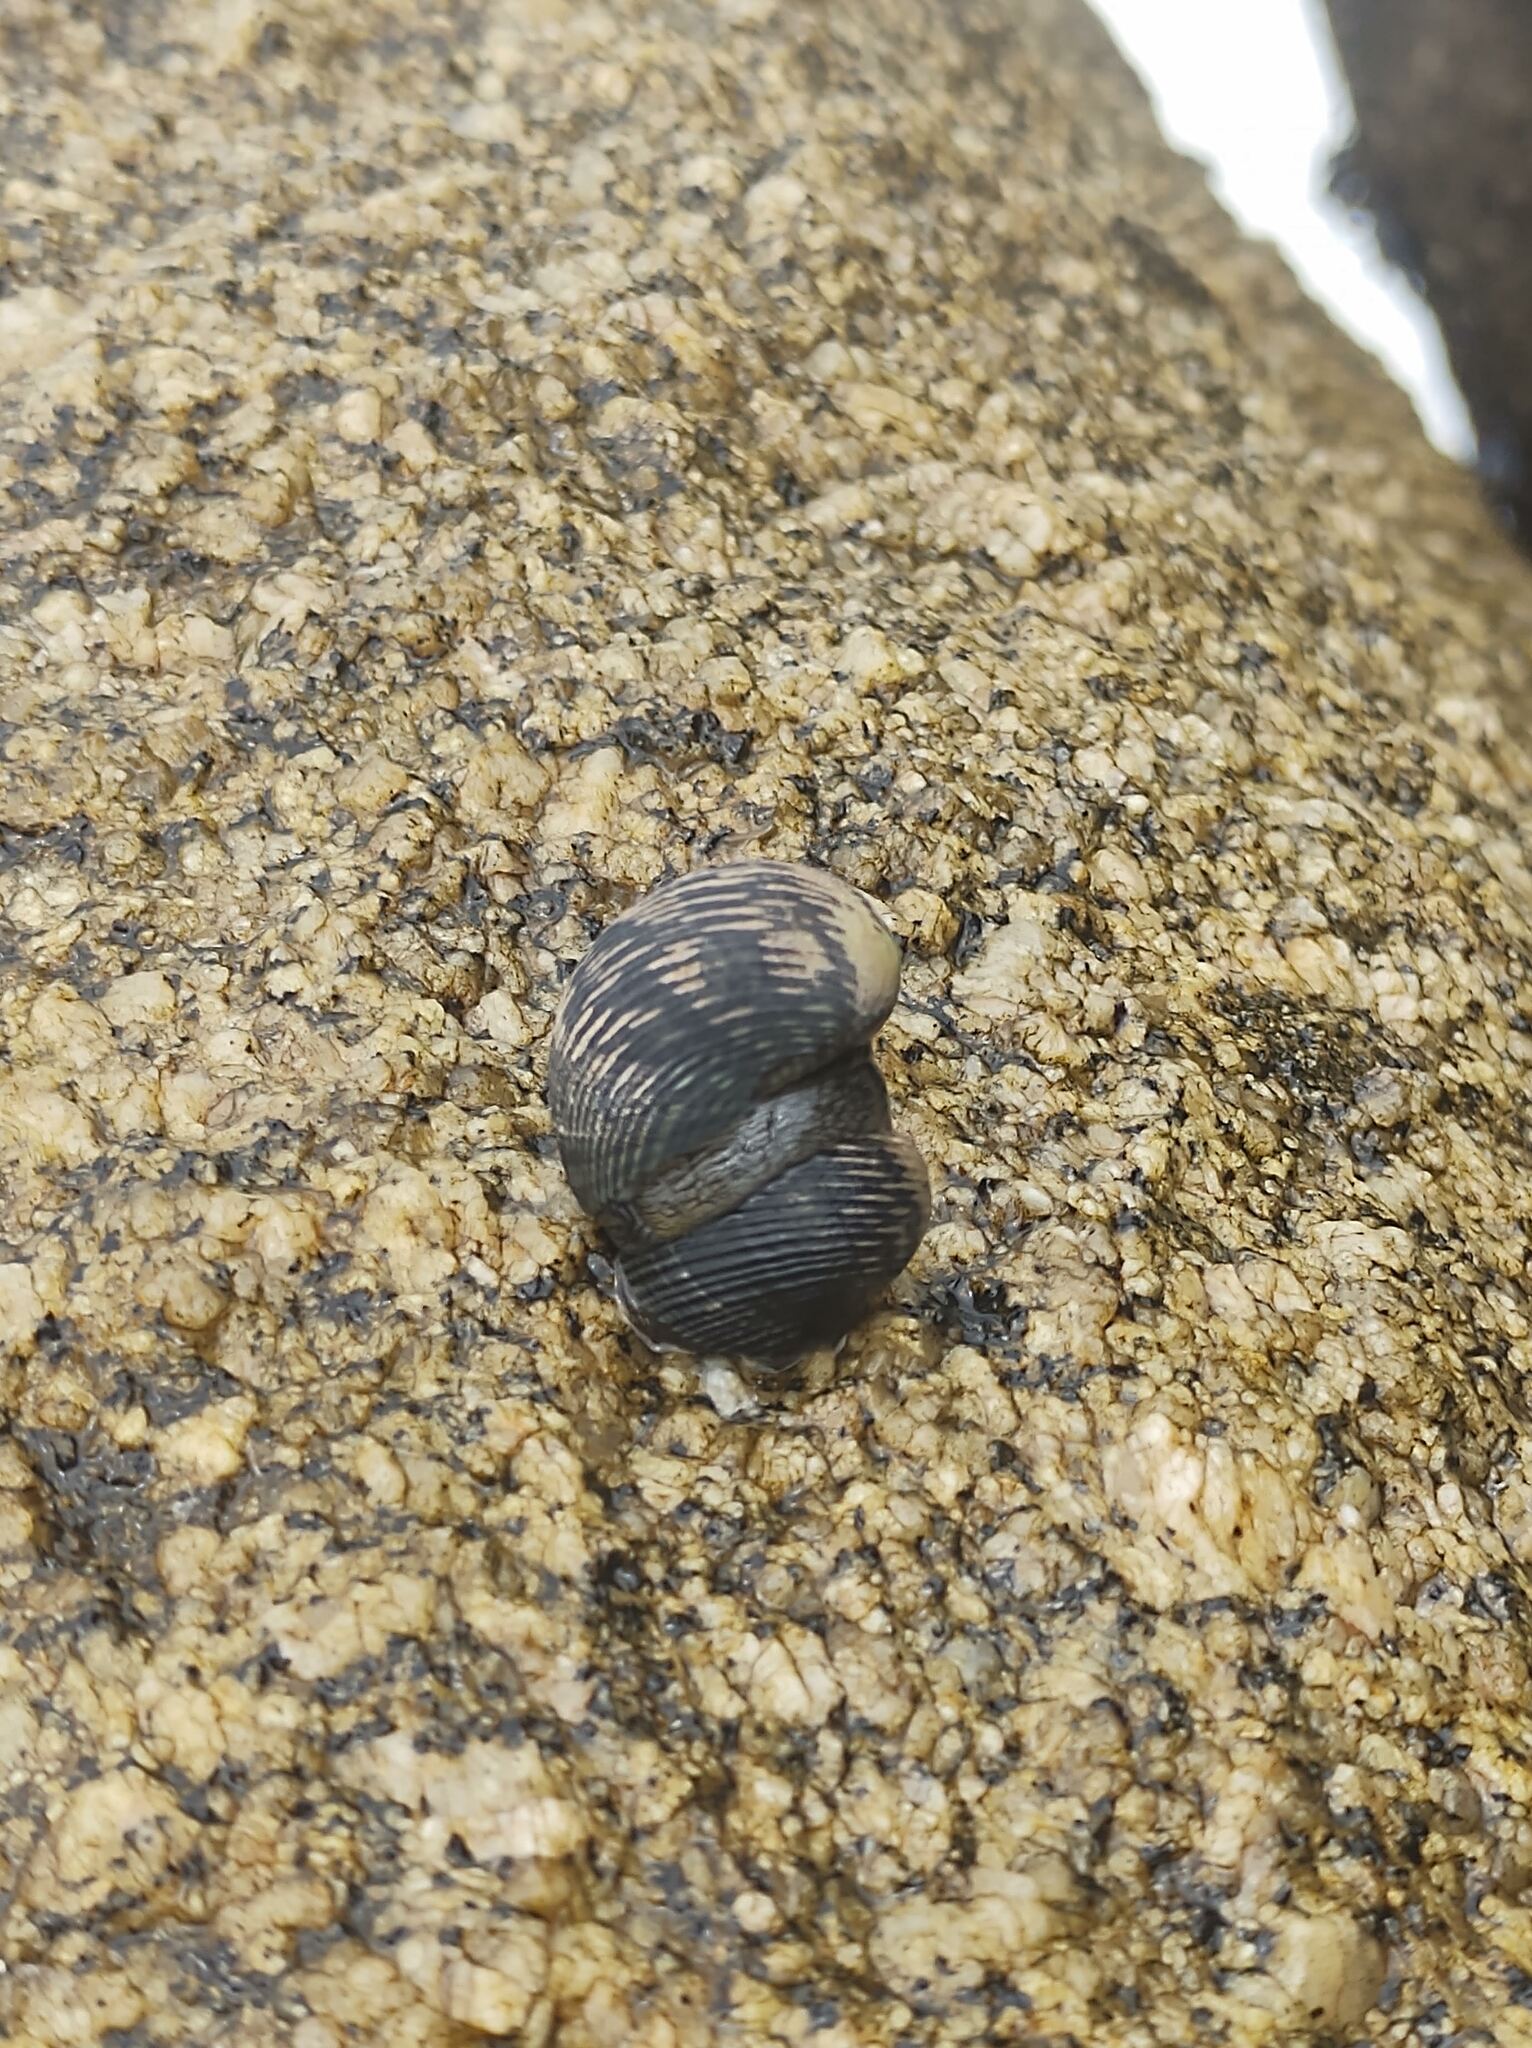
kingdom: Animalia
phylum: Mollusca
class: Gastropoda
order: Cycloneritida
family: Neritidae
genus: Nerita
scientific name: Nerita scabricosta
